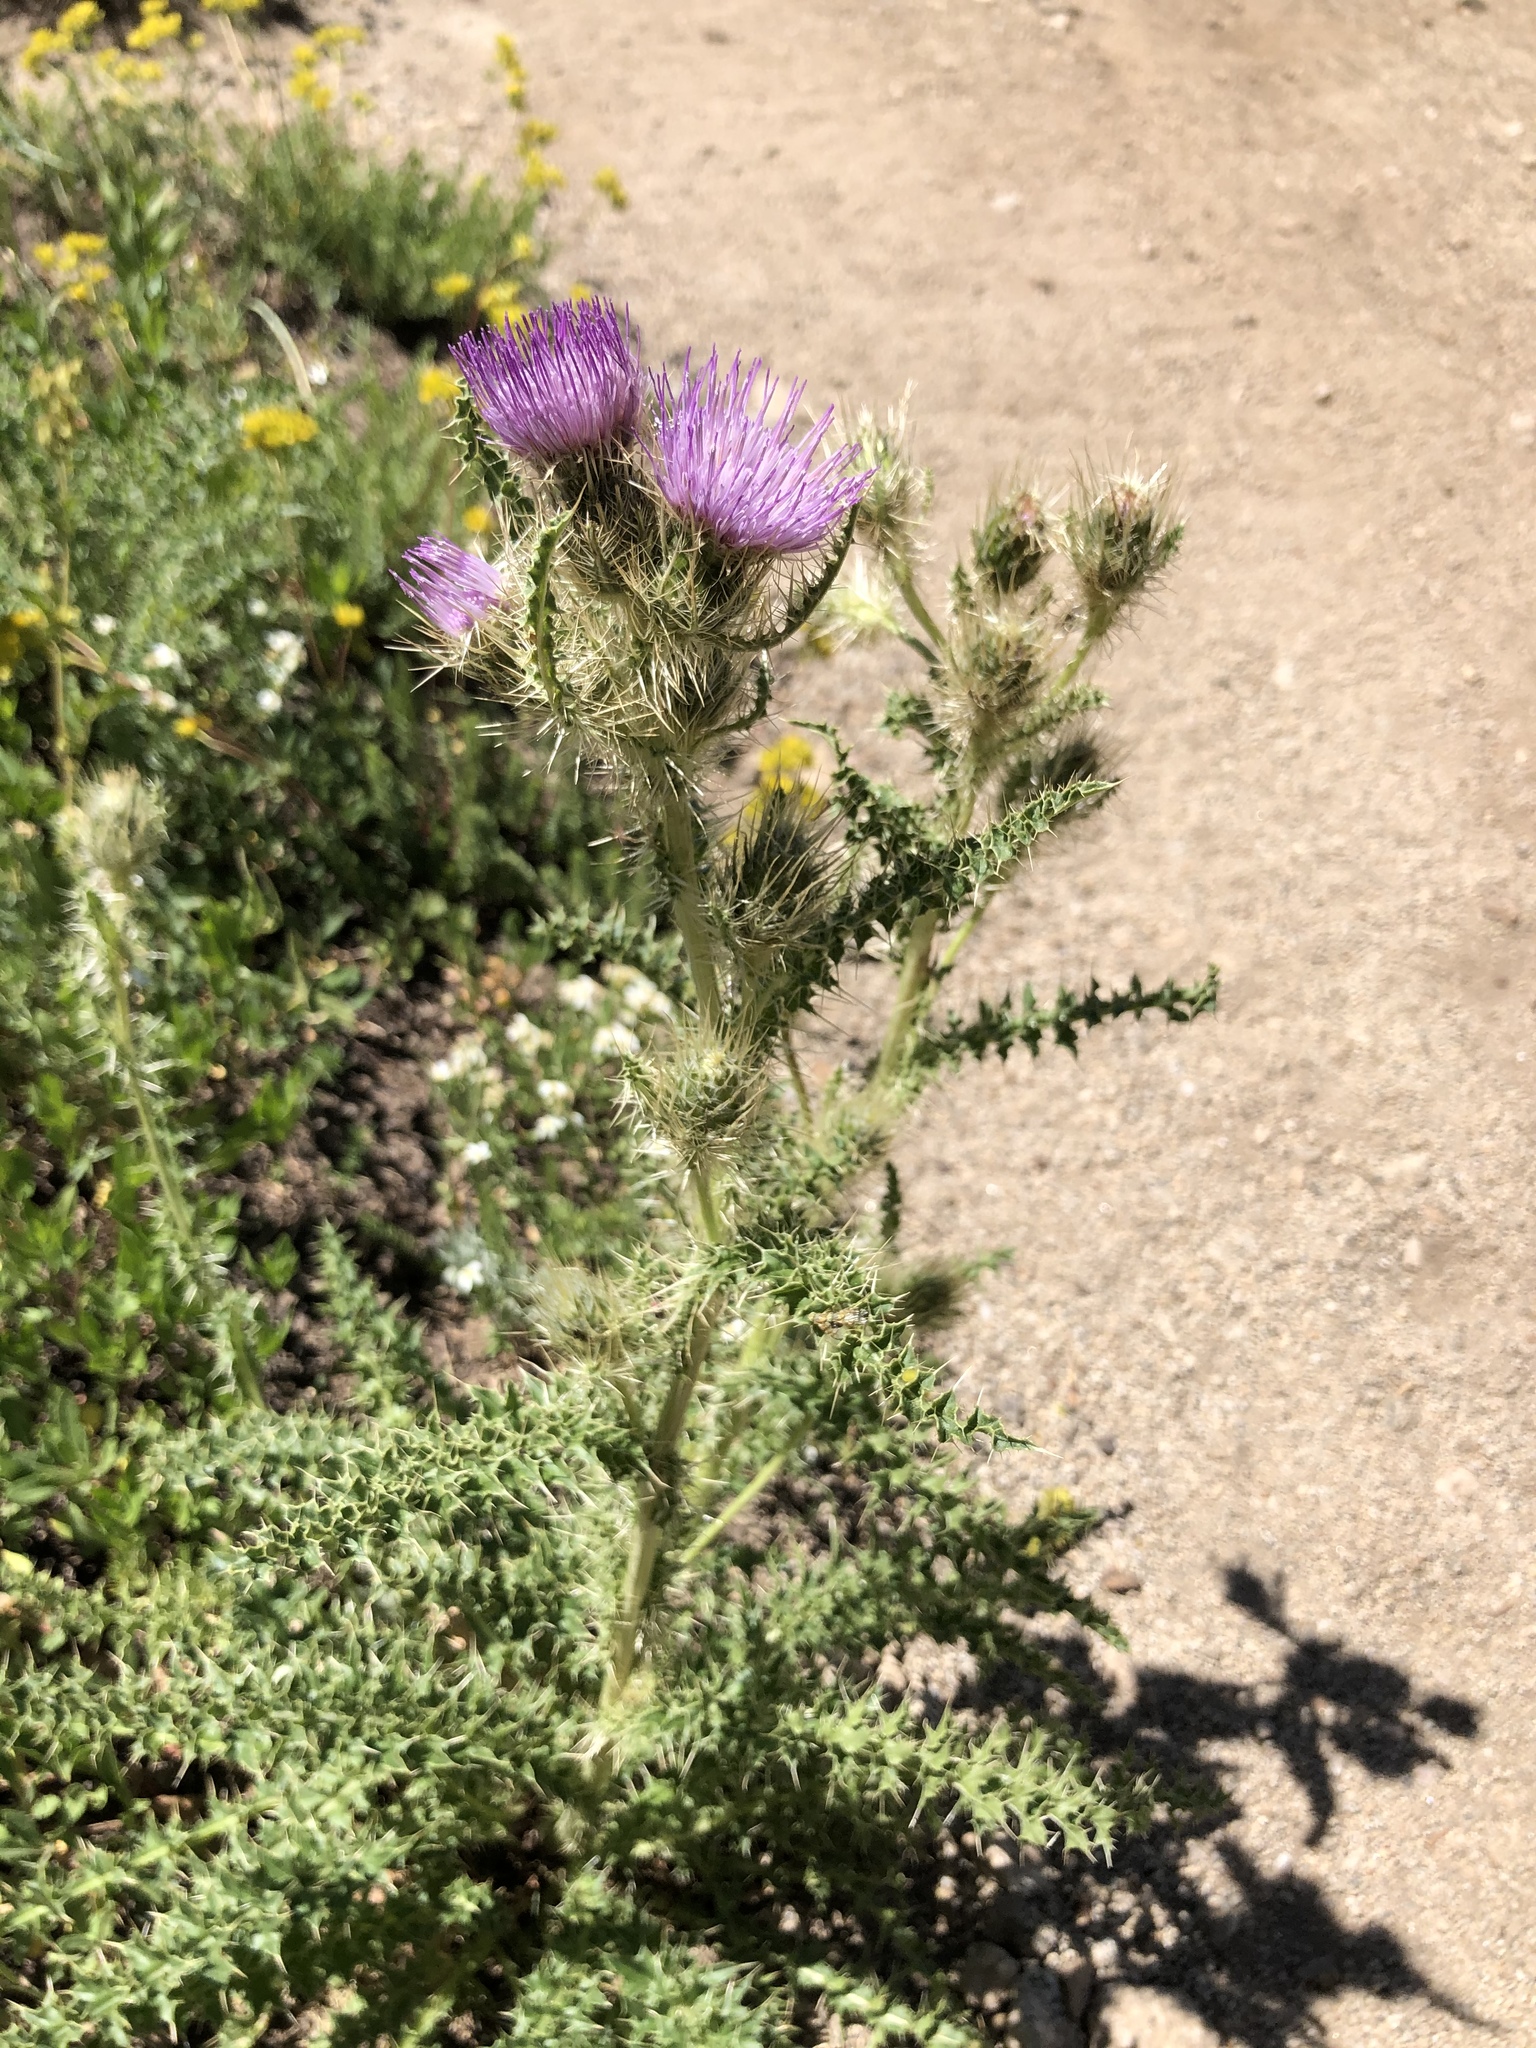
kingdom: Plantae
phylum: Tracheophyta
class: Magnoliopsida
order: Asterales
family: Asteraceae
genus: Cirsium
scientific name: Cirsium eatonii
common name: Eaton's thistle
